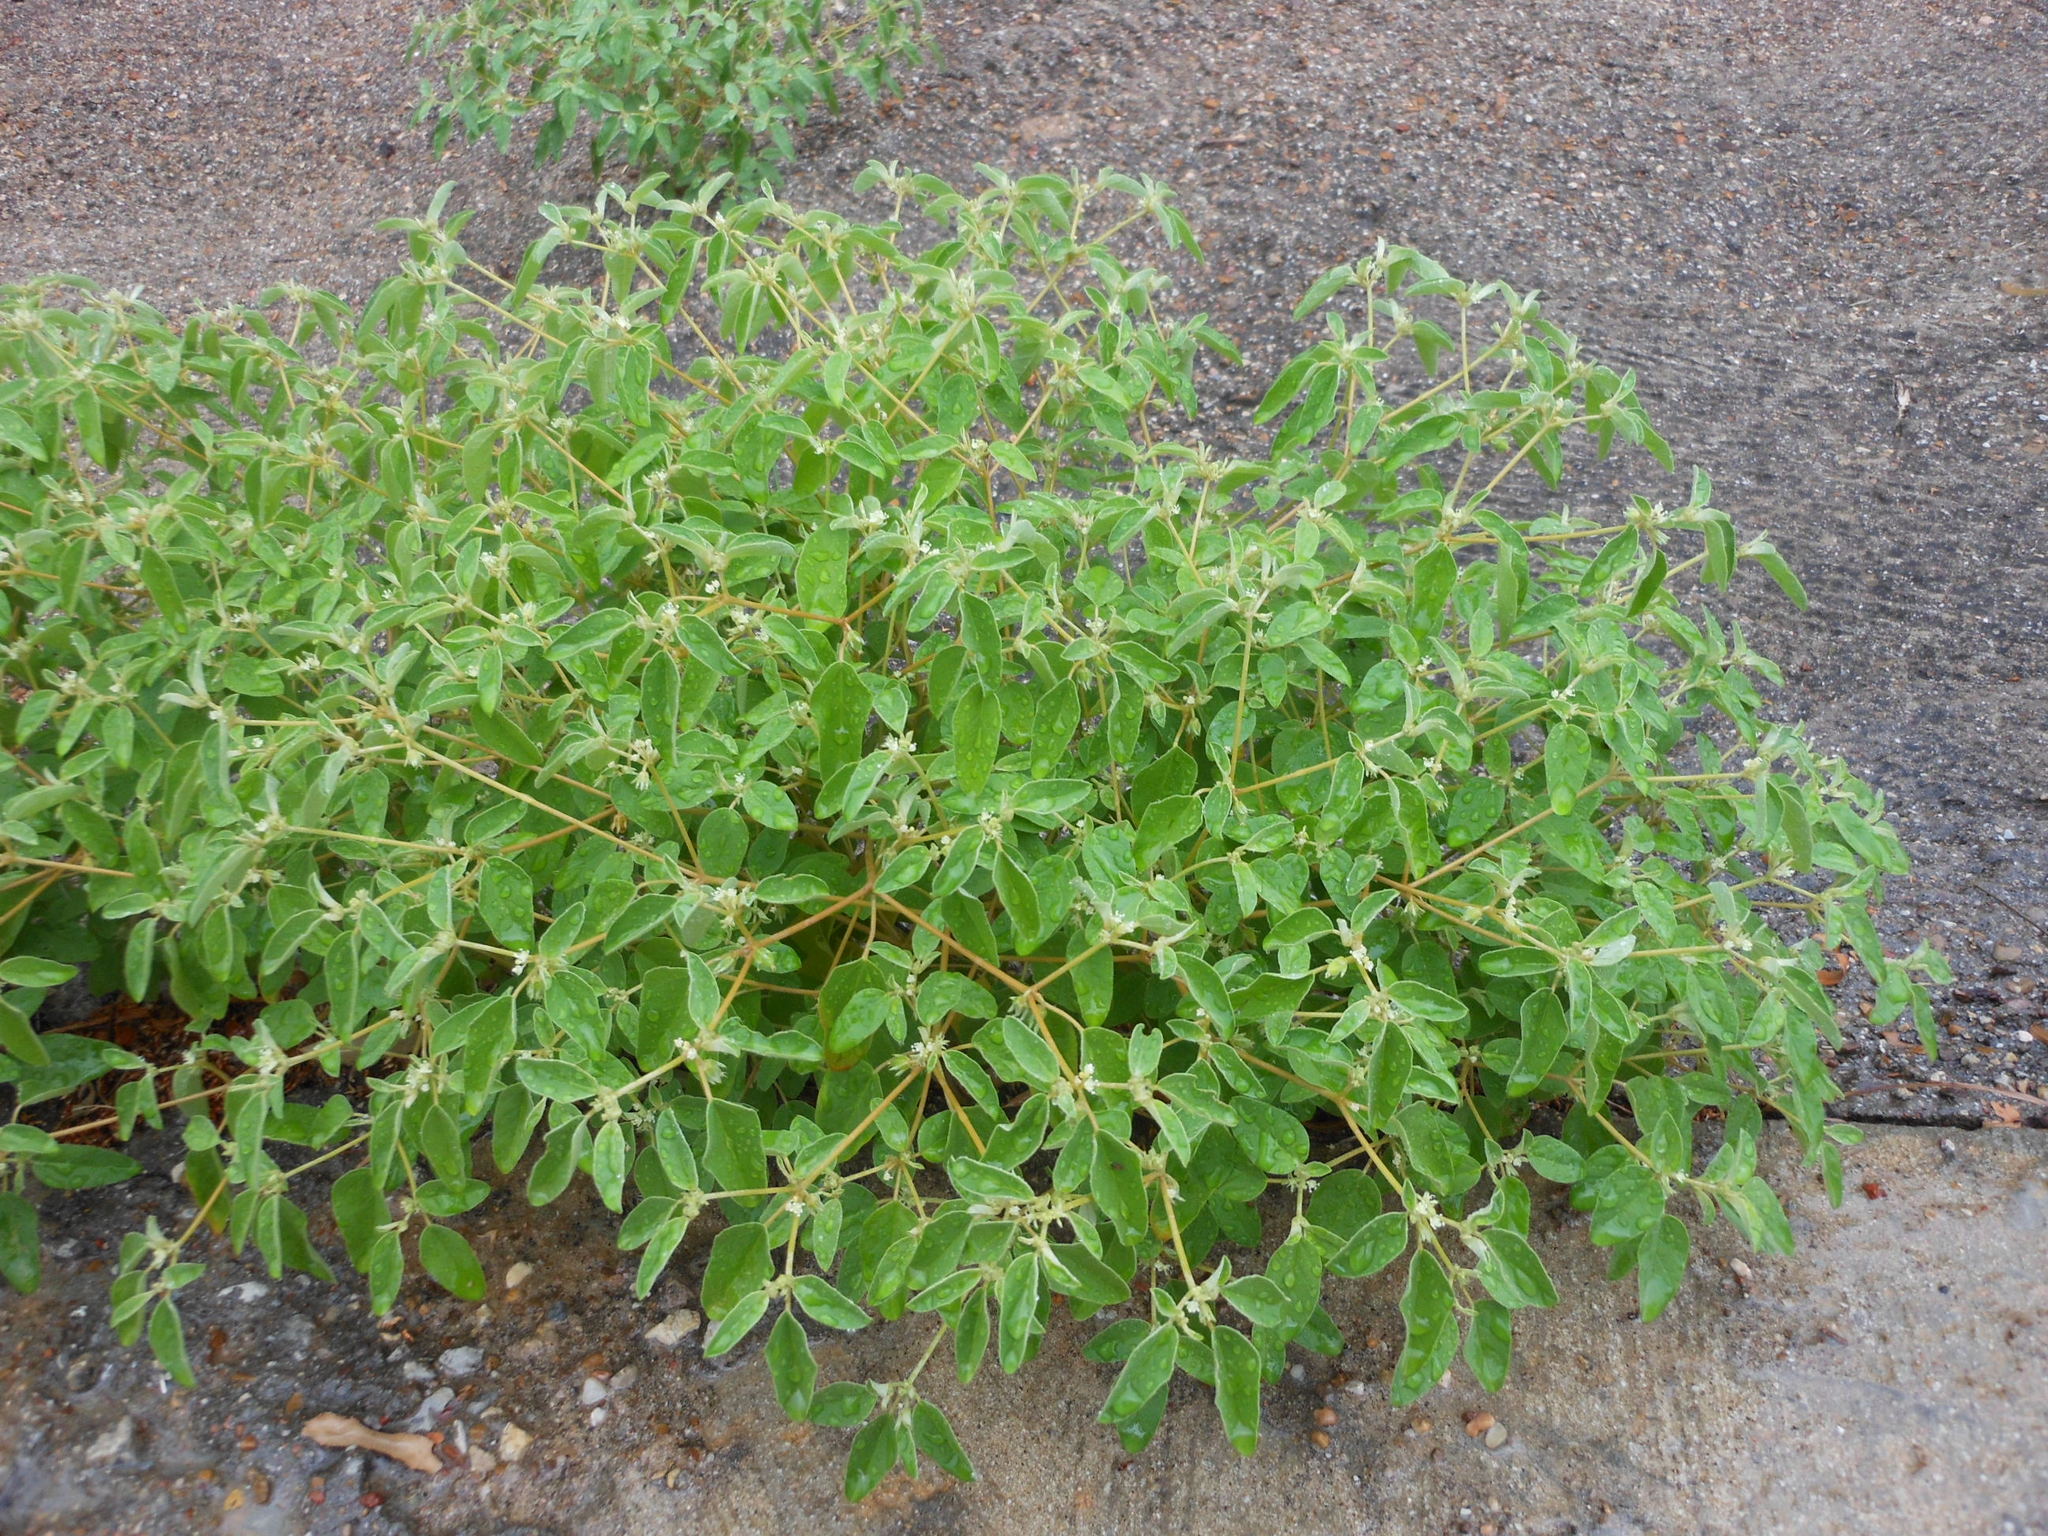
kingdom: Plantae
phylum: Tracheophyta
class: Magnoliopsida
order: Malpighiales
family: Euphorbiaceae
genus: Croton
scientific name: Croton monanthogynus
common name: One-seed croton
